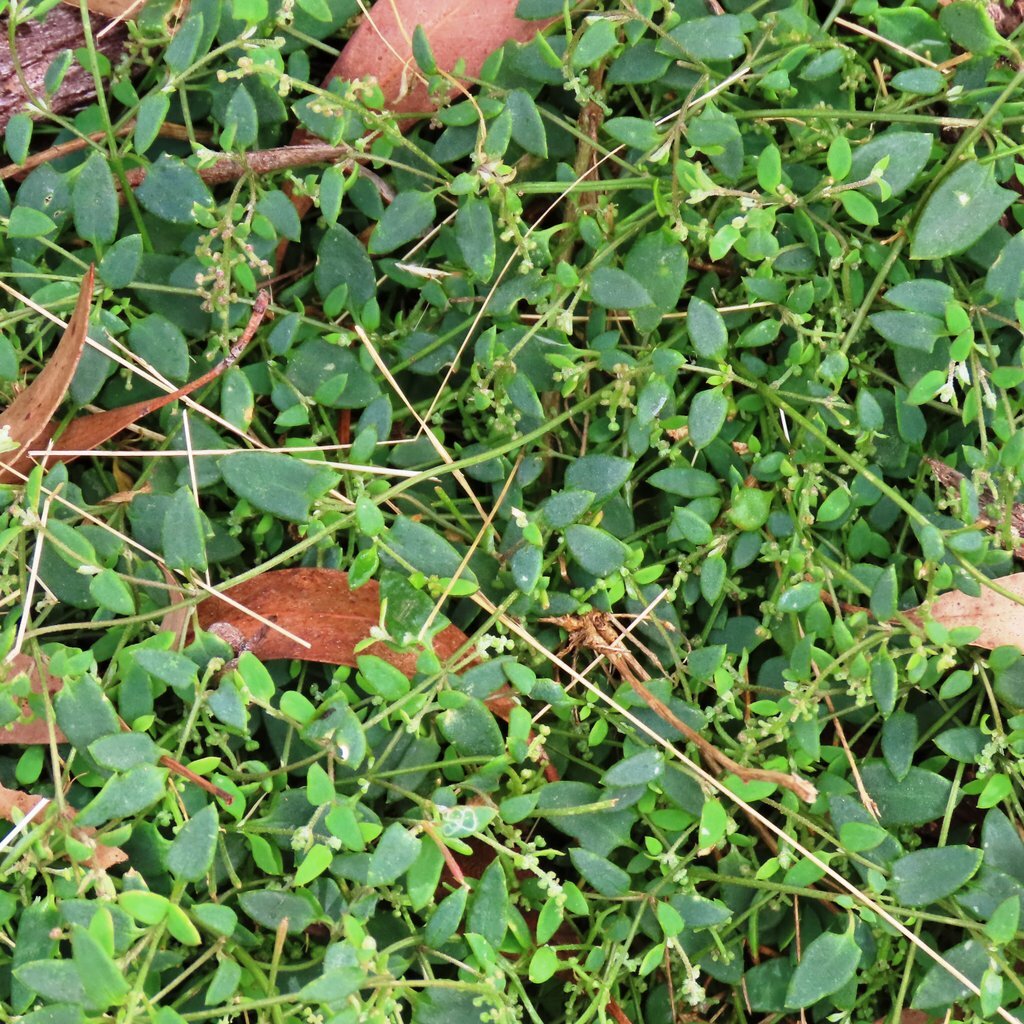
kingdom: Plantae
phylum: Tracheophyta
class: Magnoliopsida
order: Caryophyllales
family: Amaranthaceae
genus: Chenopodium
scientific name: Chenopodium nutans
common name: Climbing-saltbush
